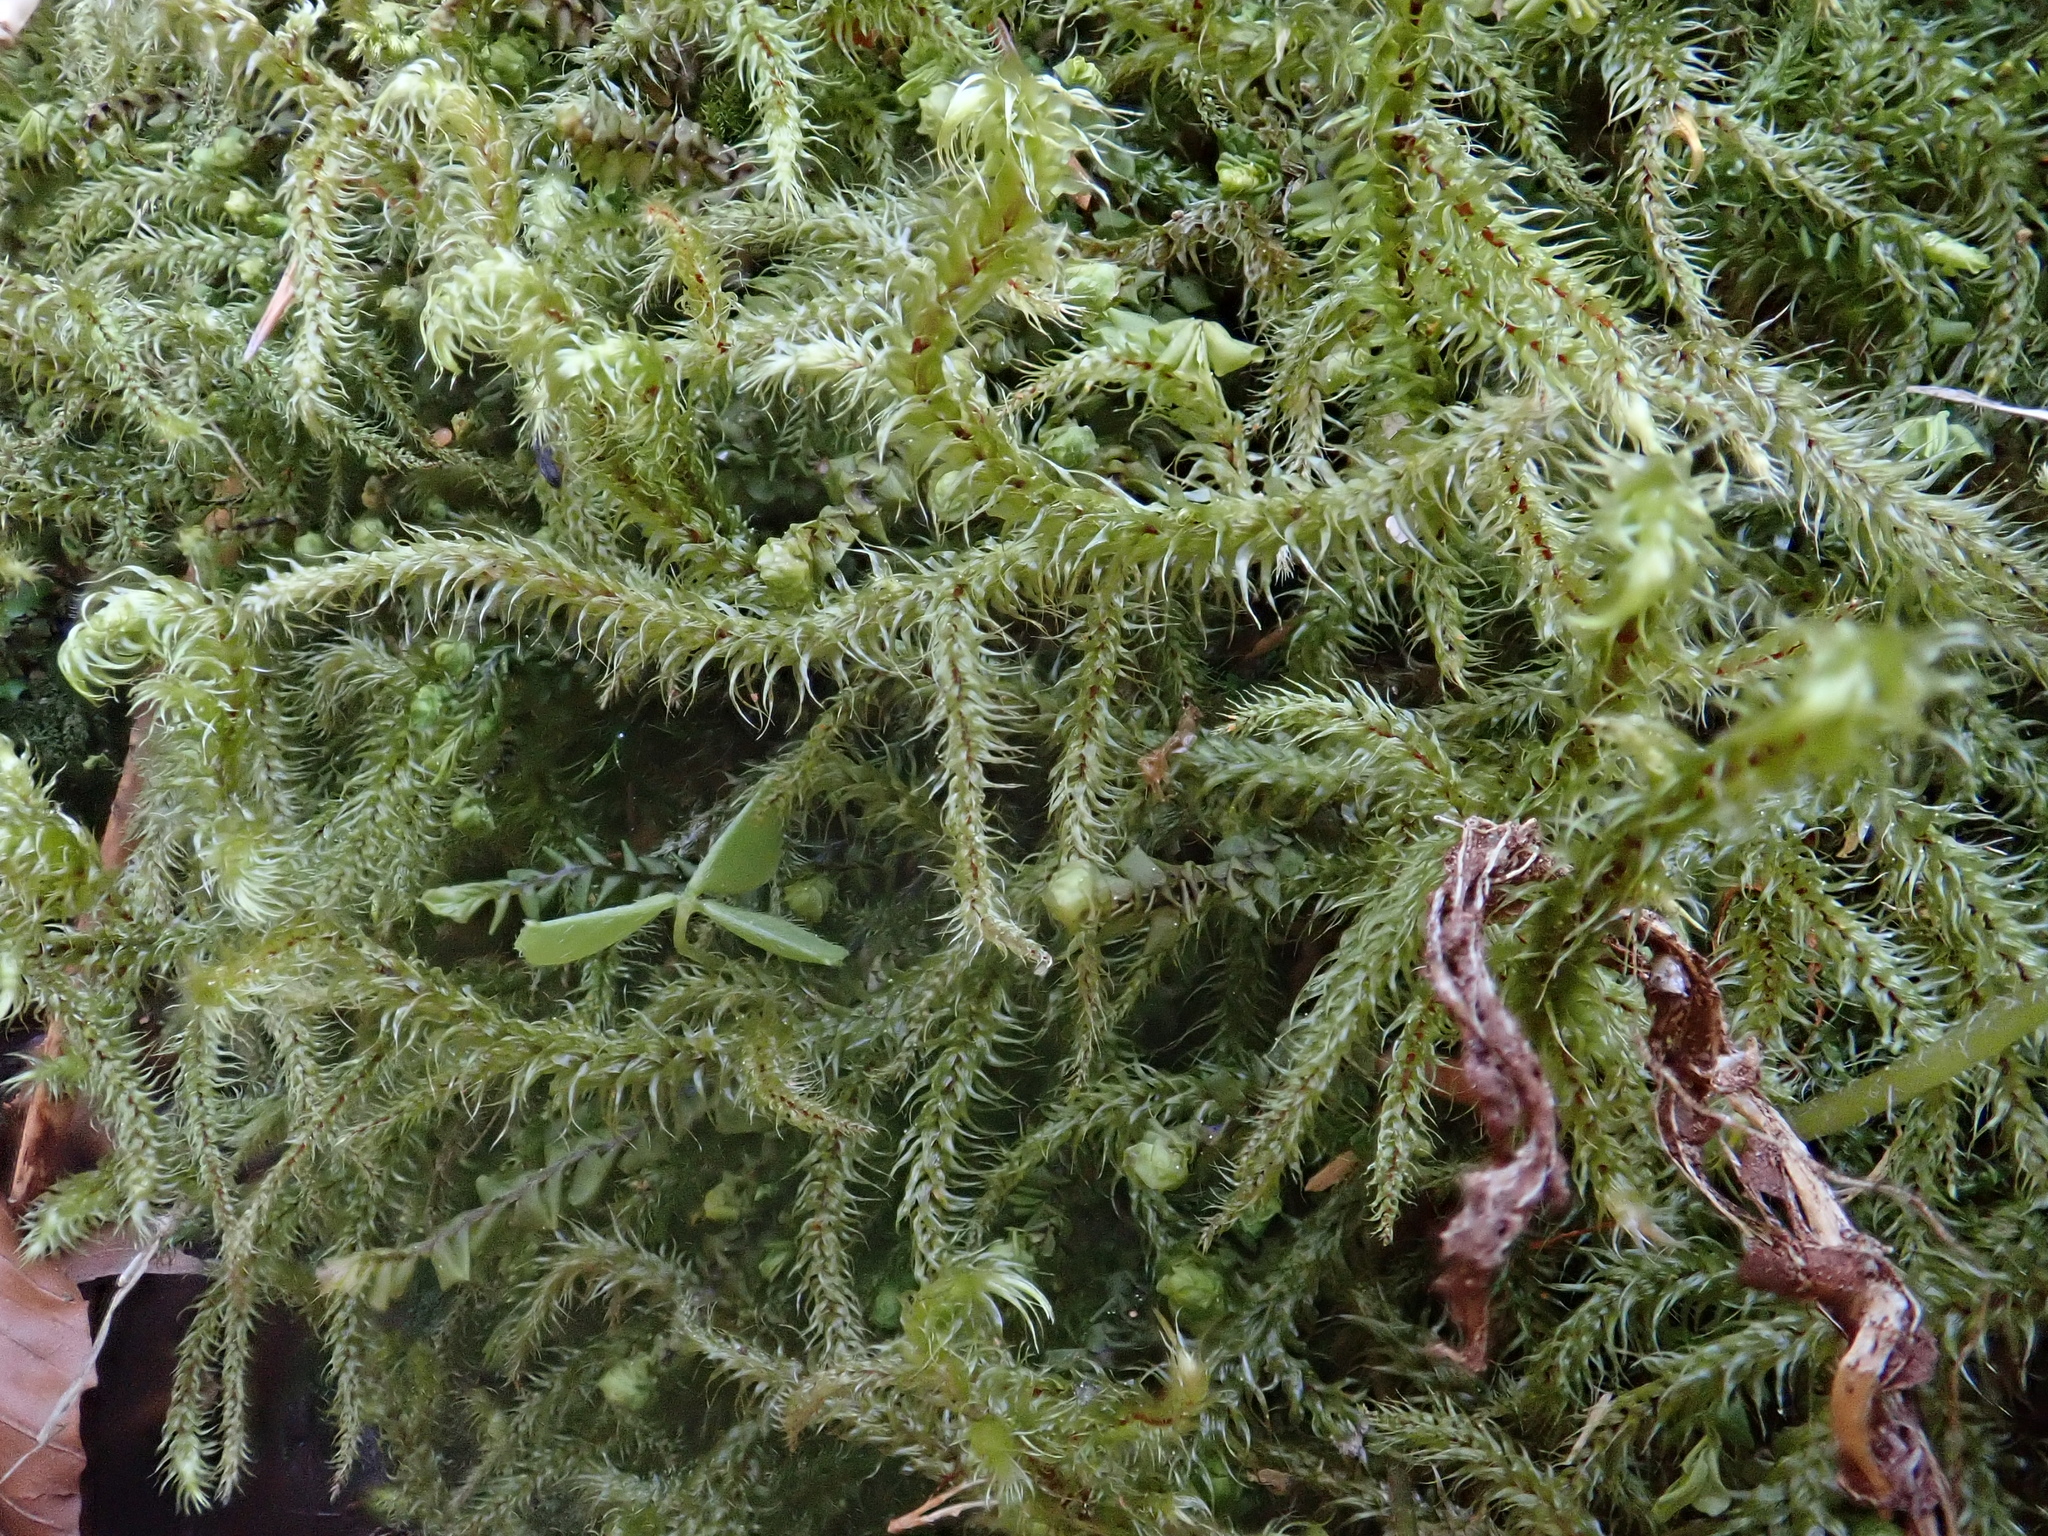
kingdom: Plantae
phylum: Bryophyta
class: Bryopsida
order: Hypnales
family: Hylocomiaceae
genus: Rhytidiadelphus
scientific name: Rhytidiadelphus loreus
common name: Lanky moss
